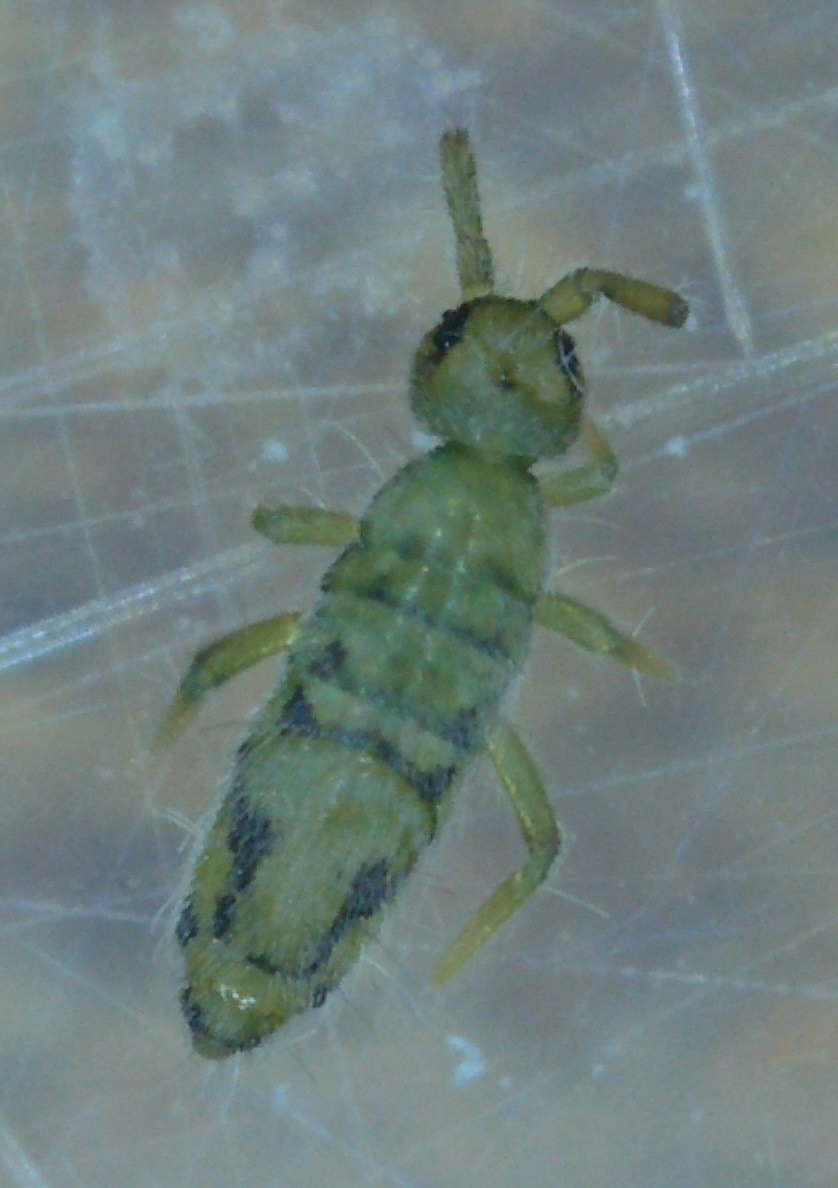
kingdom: Animalia
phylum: Arthropoda
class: Collembola
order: Entomobryomorpha
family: Entomobryidae
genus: Entomobrya
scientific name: Entomobrya nivalis
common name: Cosmopolitan springtail
